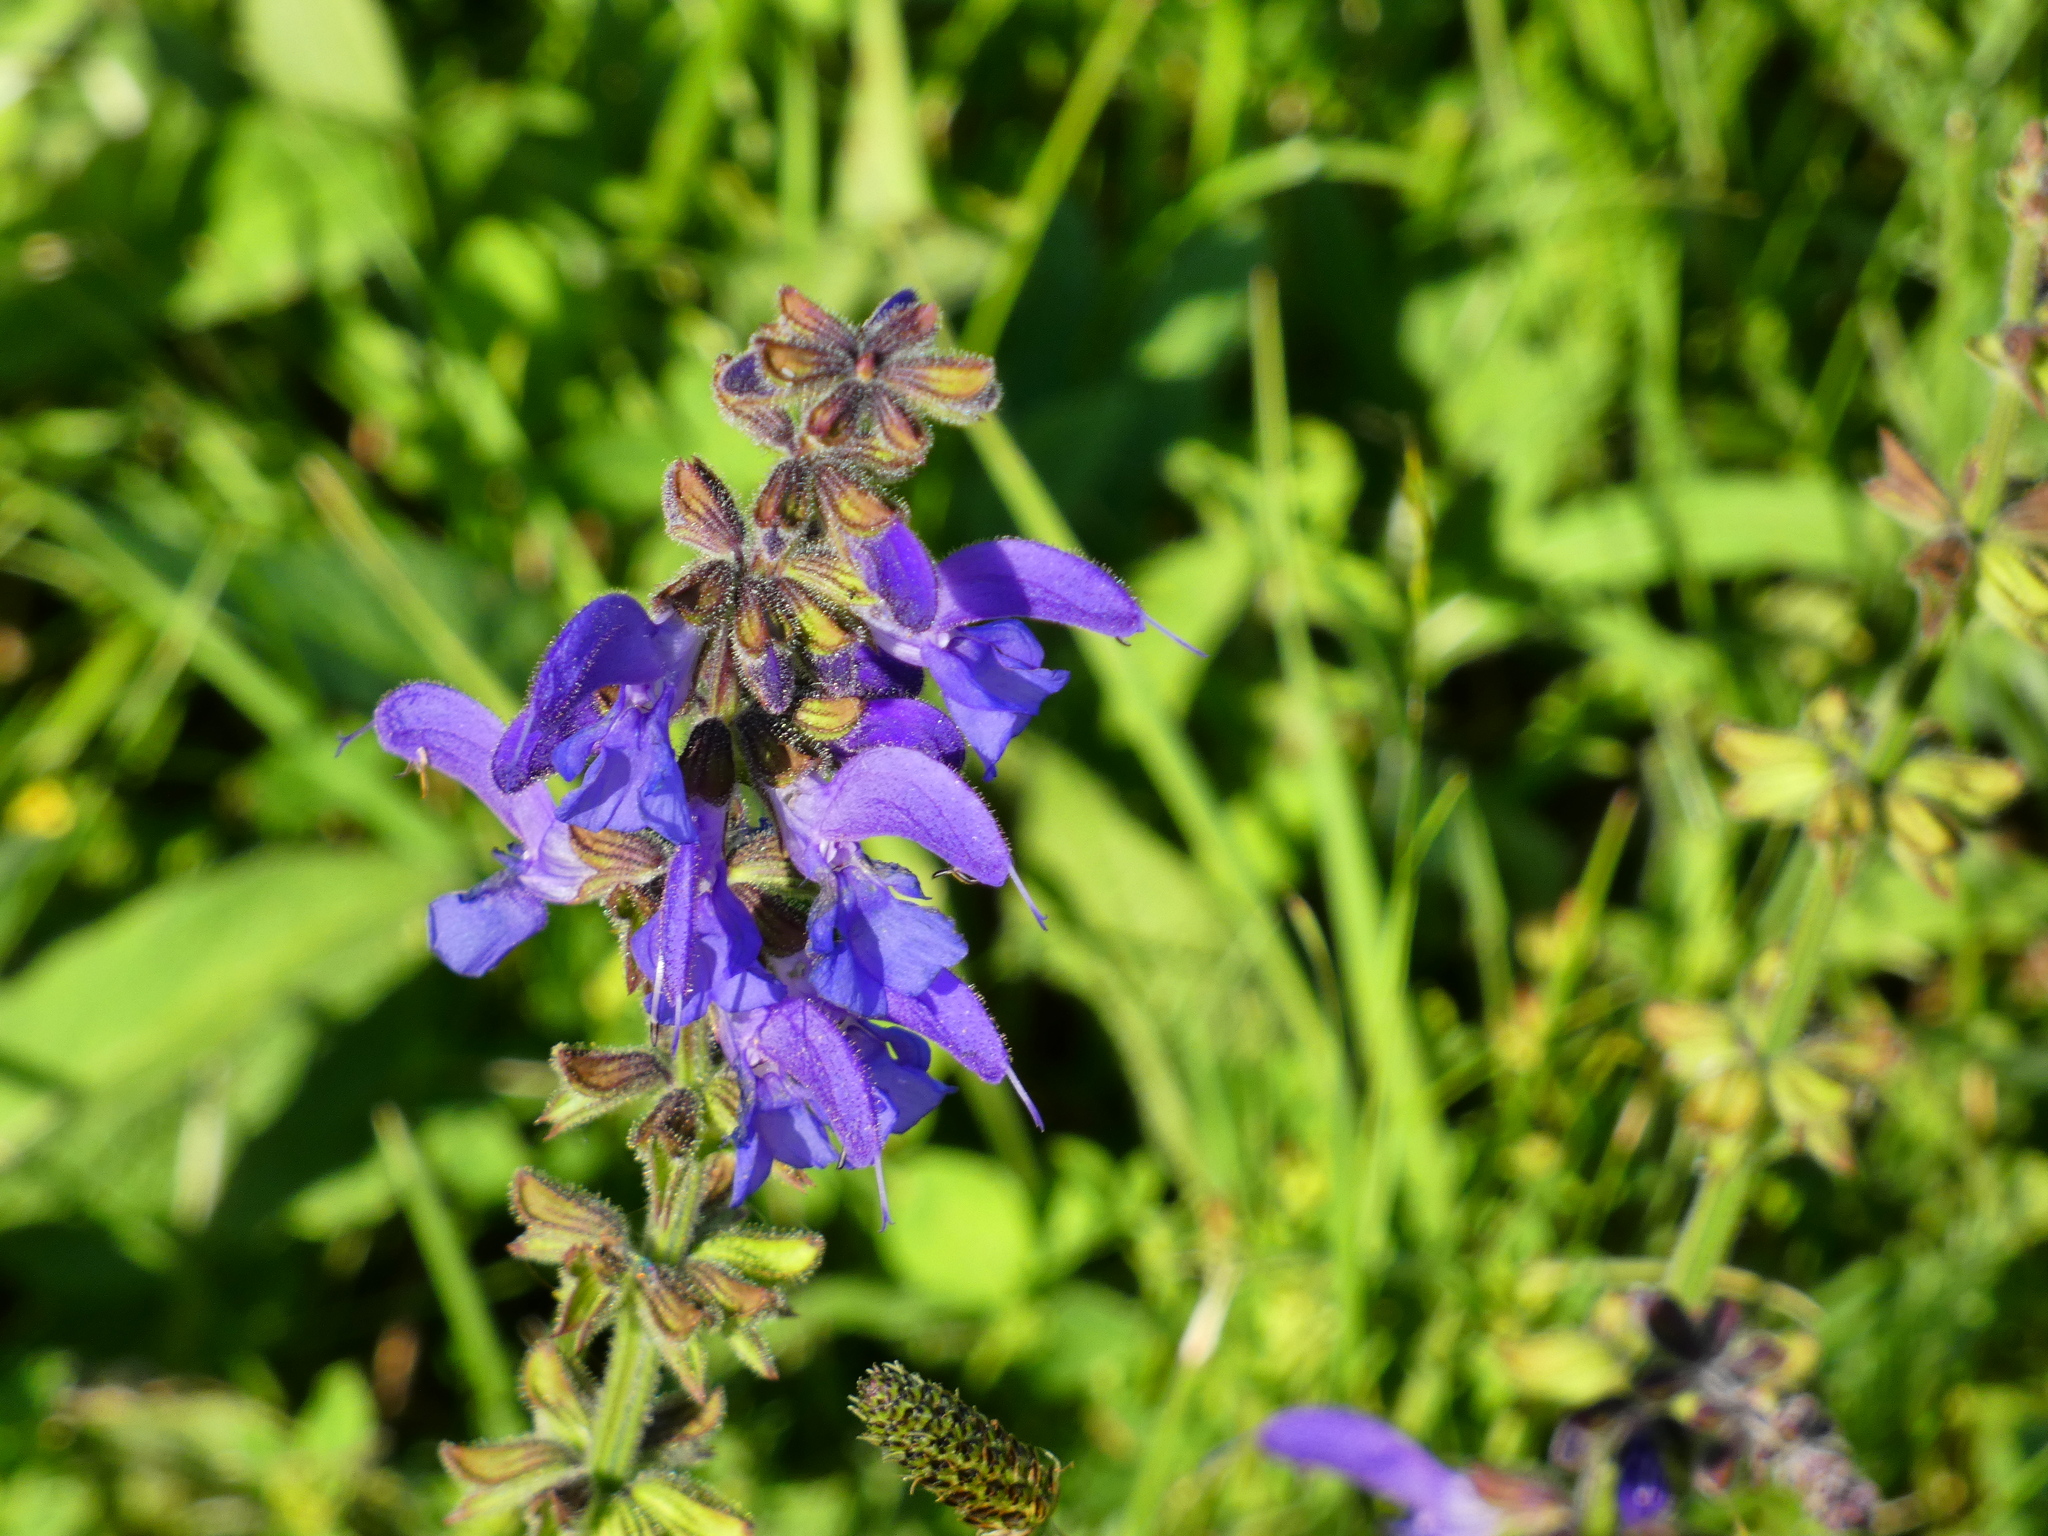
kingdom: Plantae
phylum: Tracheophyta
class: Magnoliopsida
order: Lamiales
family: Lamiaceae
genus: Salvia
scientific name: Salvia pratensis
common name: Meadow sage
